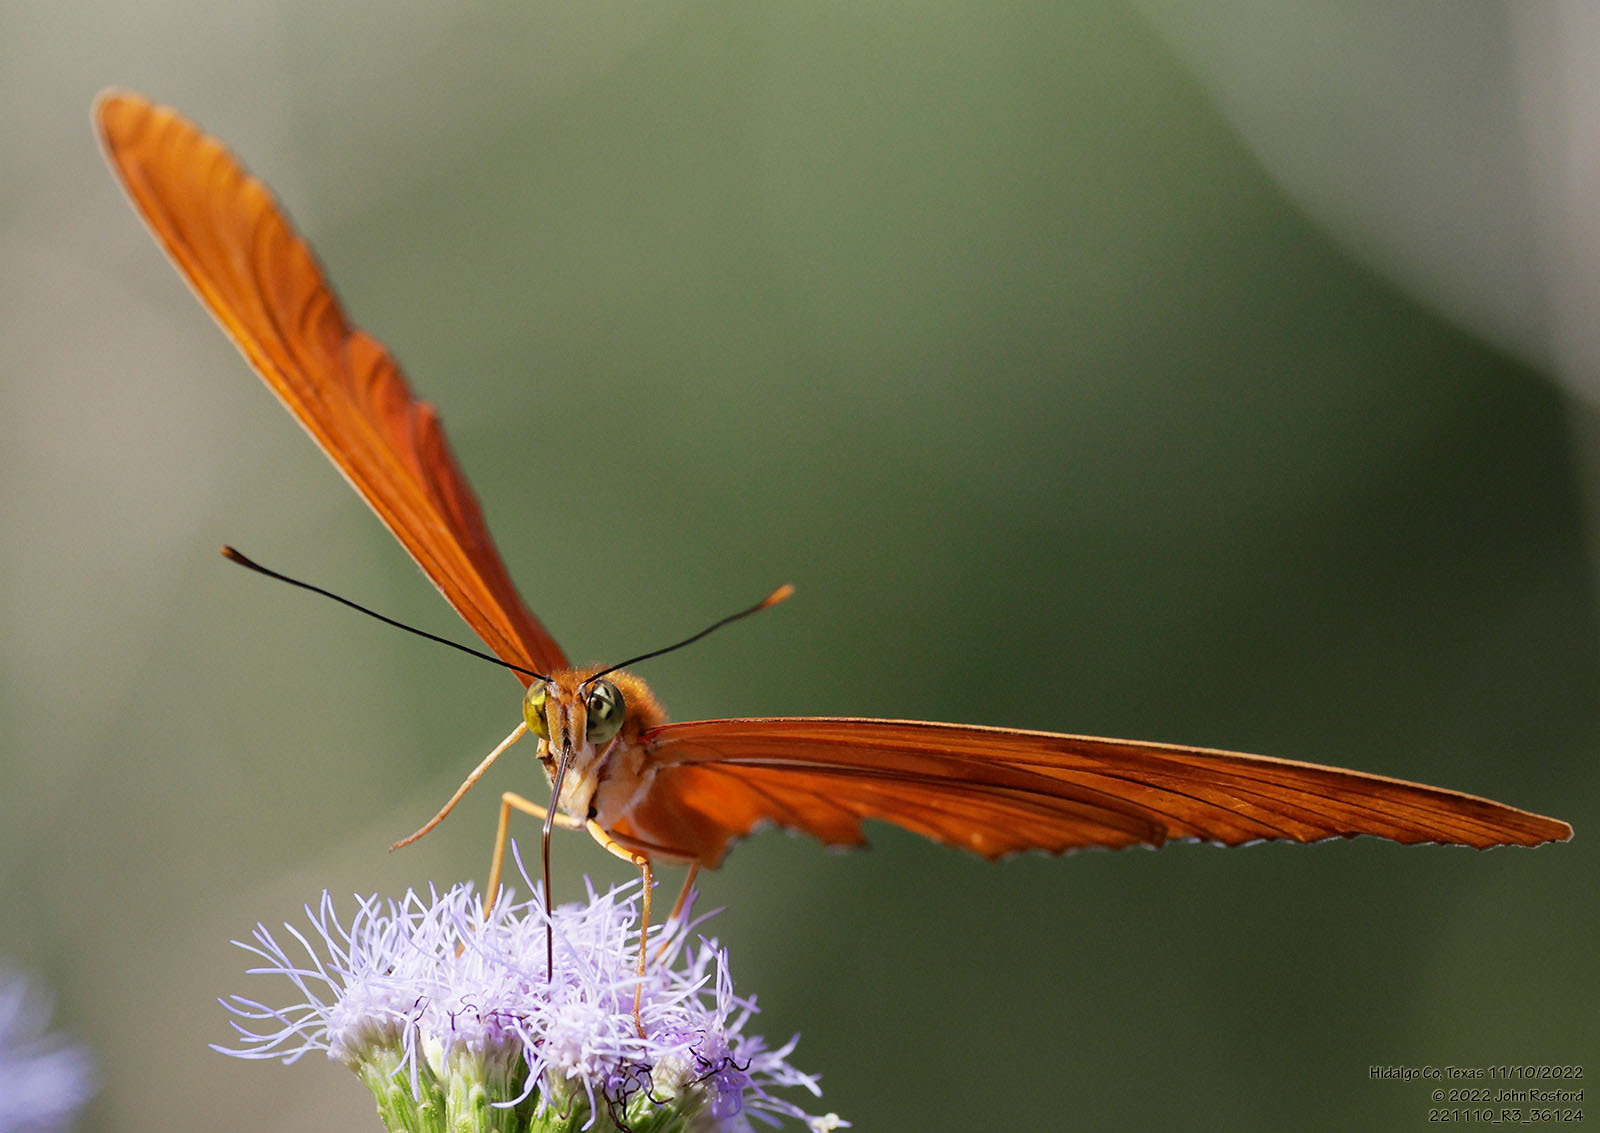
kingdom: Animalia
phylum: Arthropoda
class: Insecta
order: Lepidoptera
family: Nymphalidae
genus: Dryas
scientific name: Dryas iulia
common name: Flambeau
